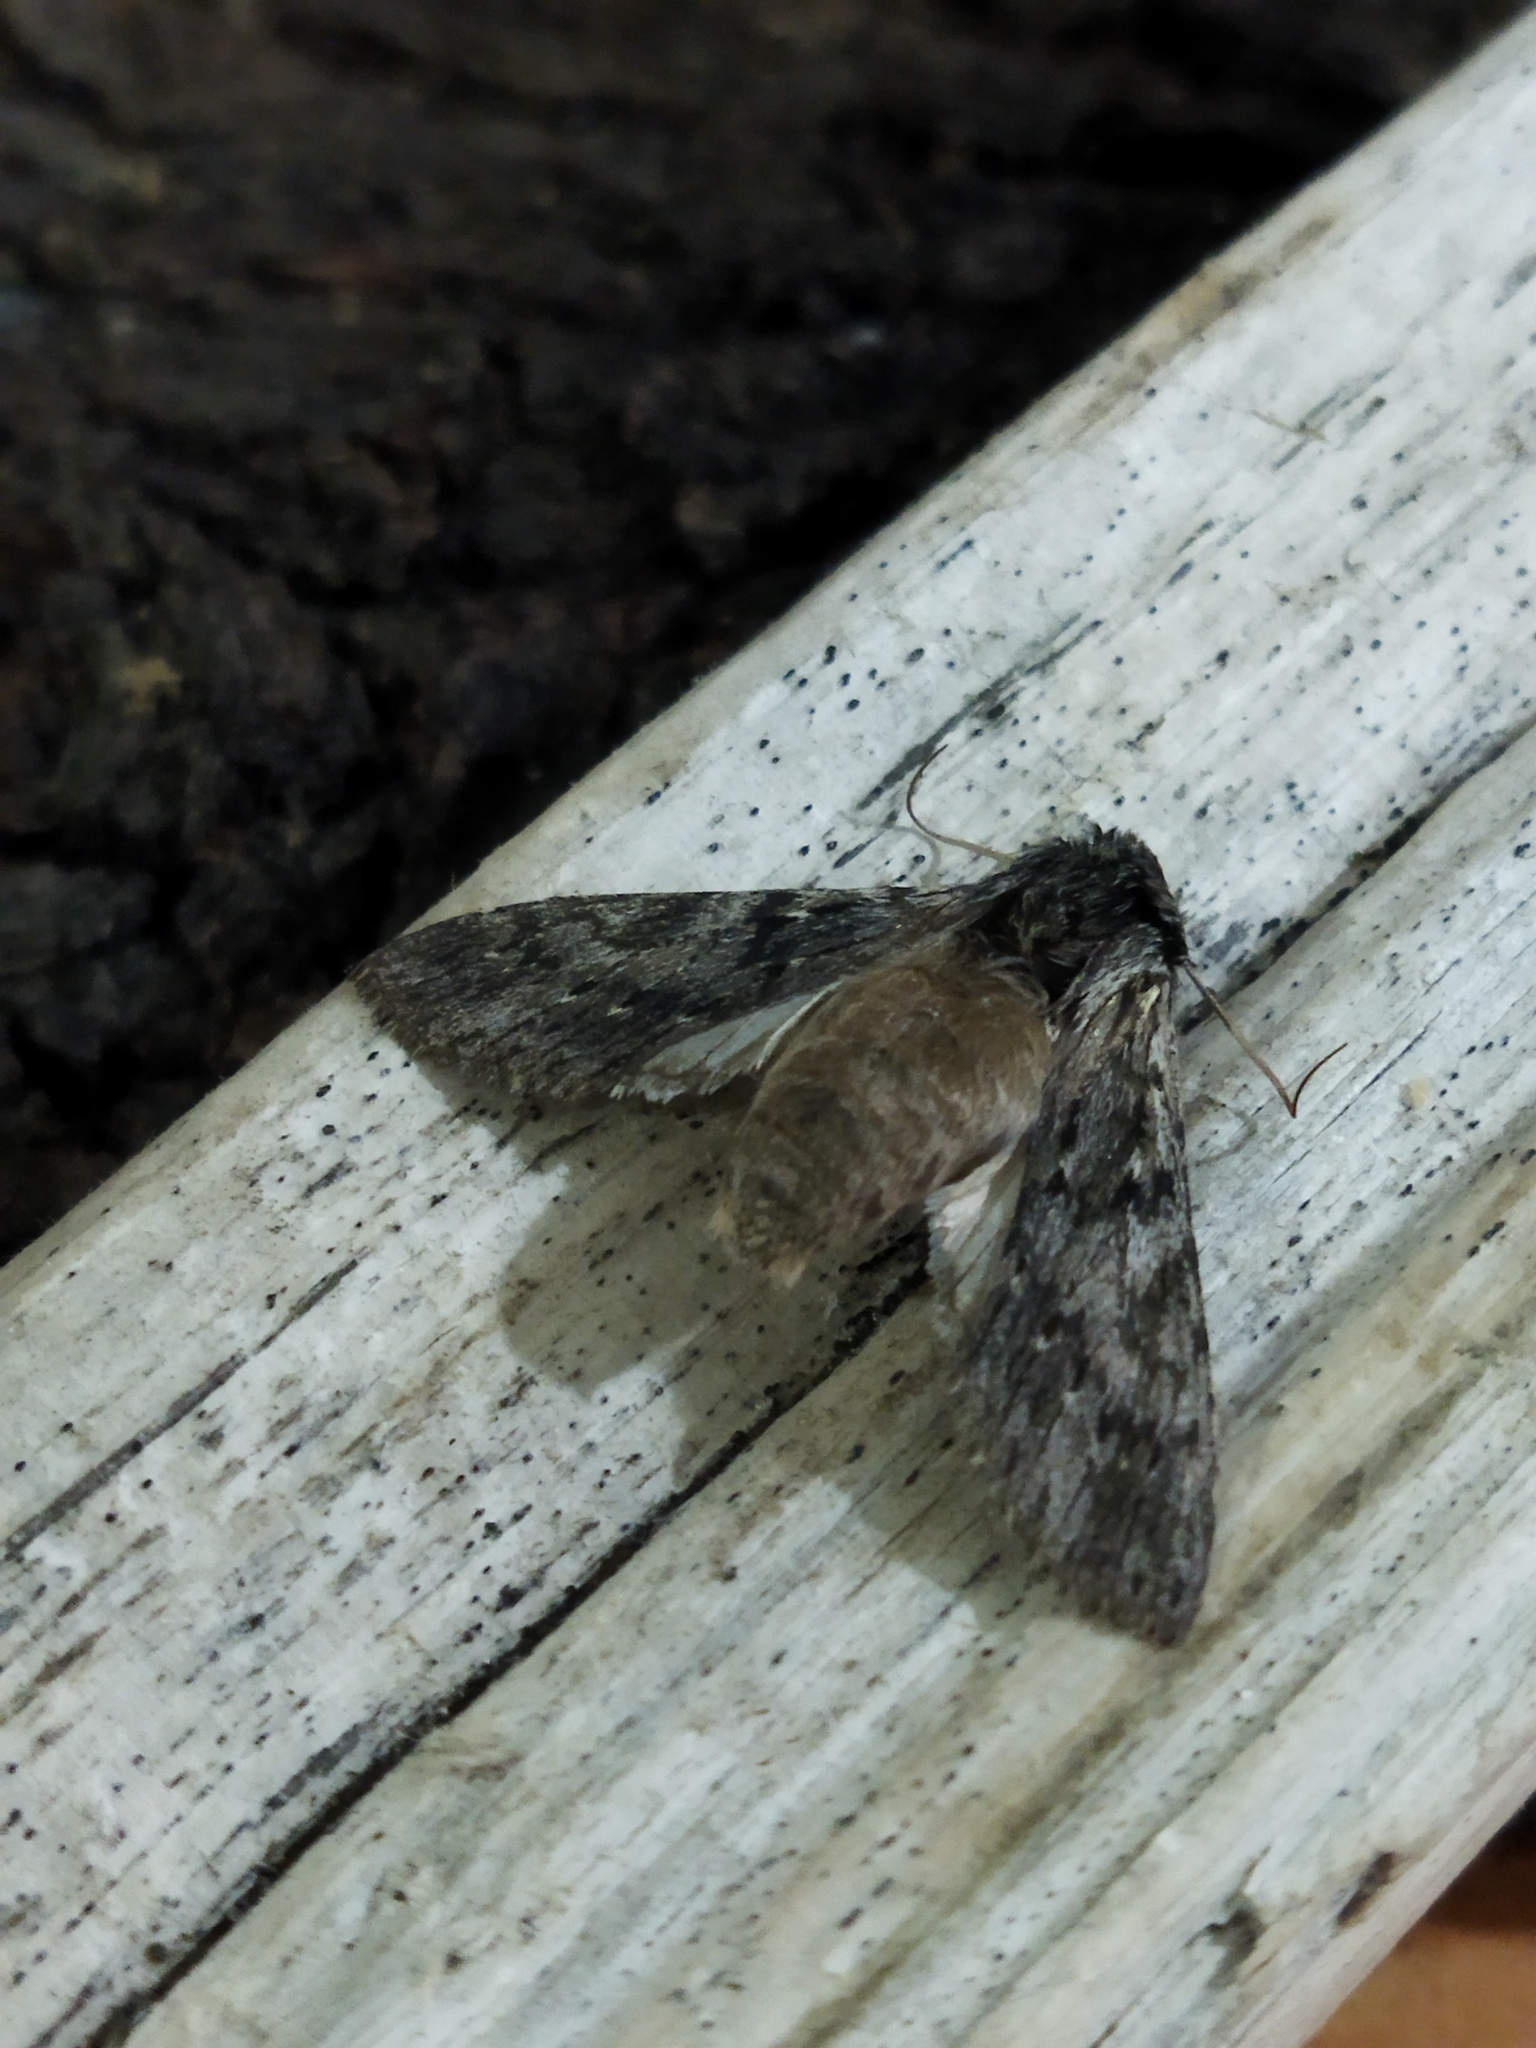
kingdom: Animalia
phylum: Arthropoda
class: Insecta
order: Lepidoptera
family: Notodontidae
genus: Dicranura
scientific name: Dicranura ulmi
